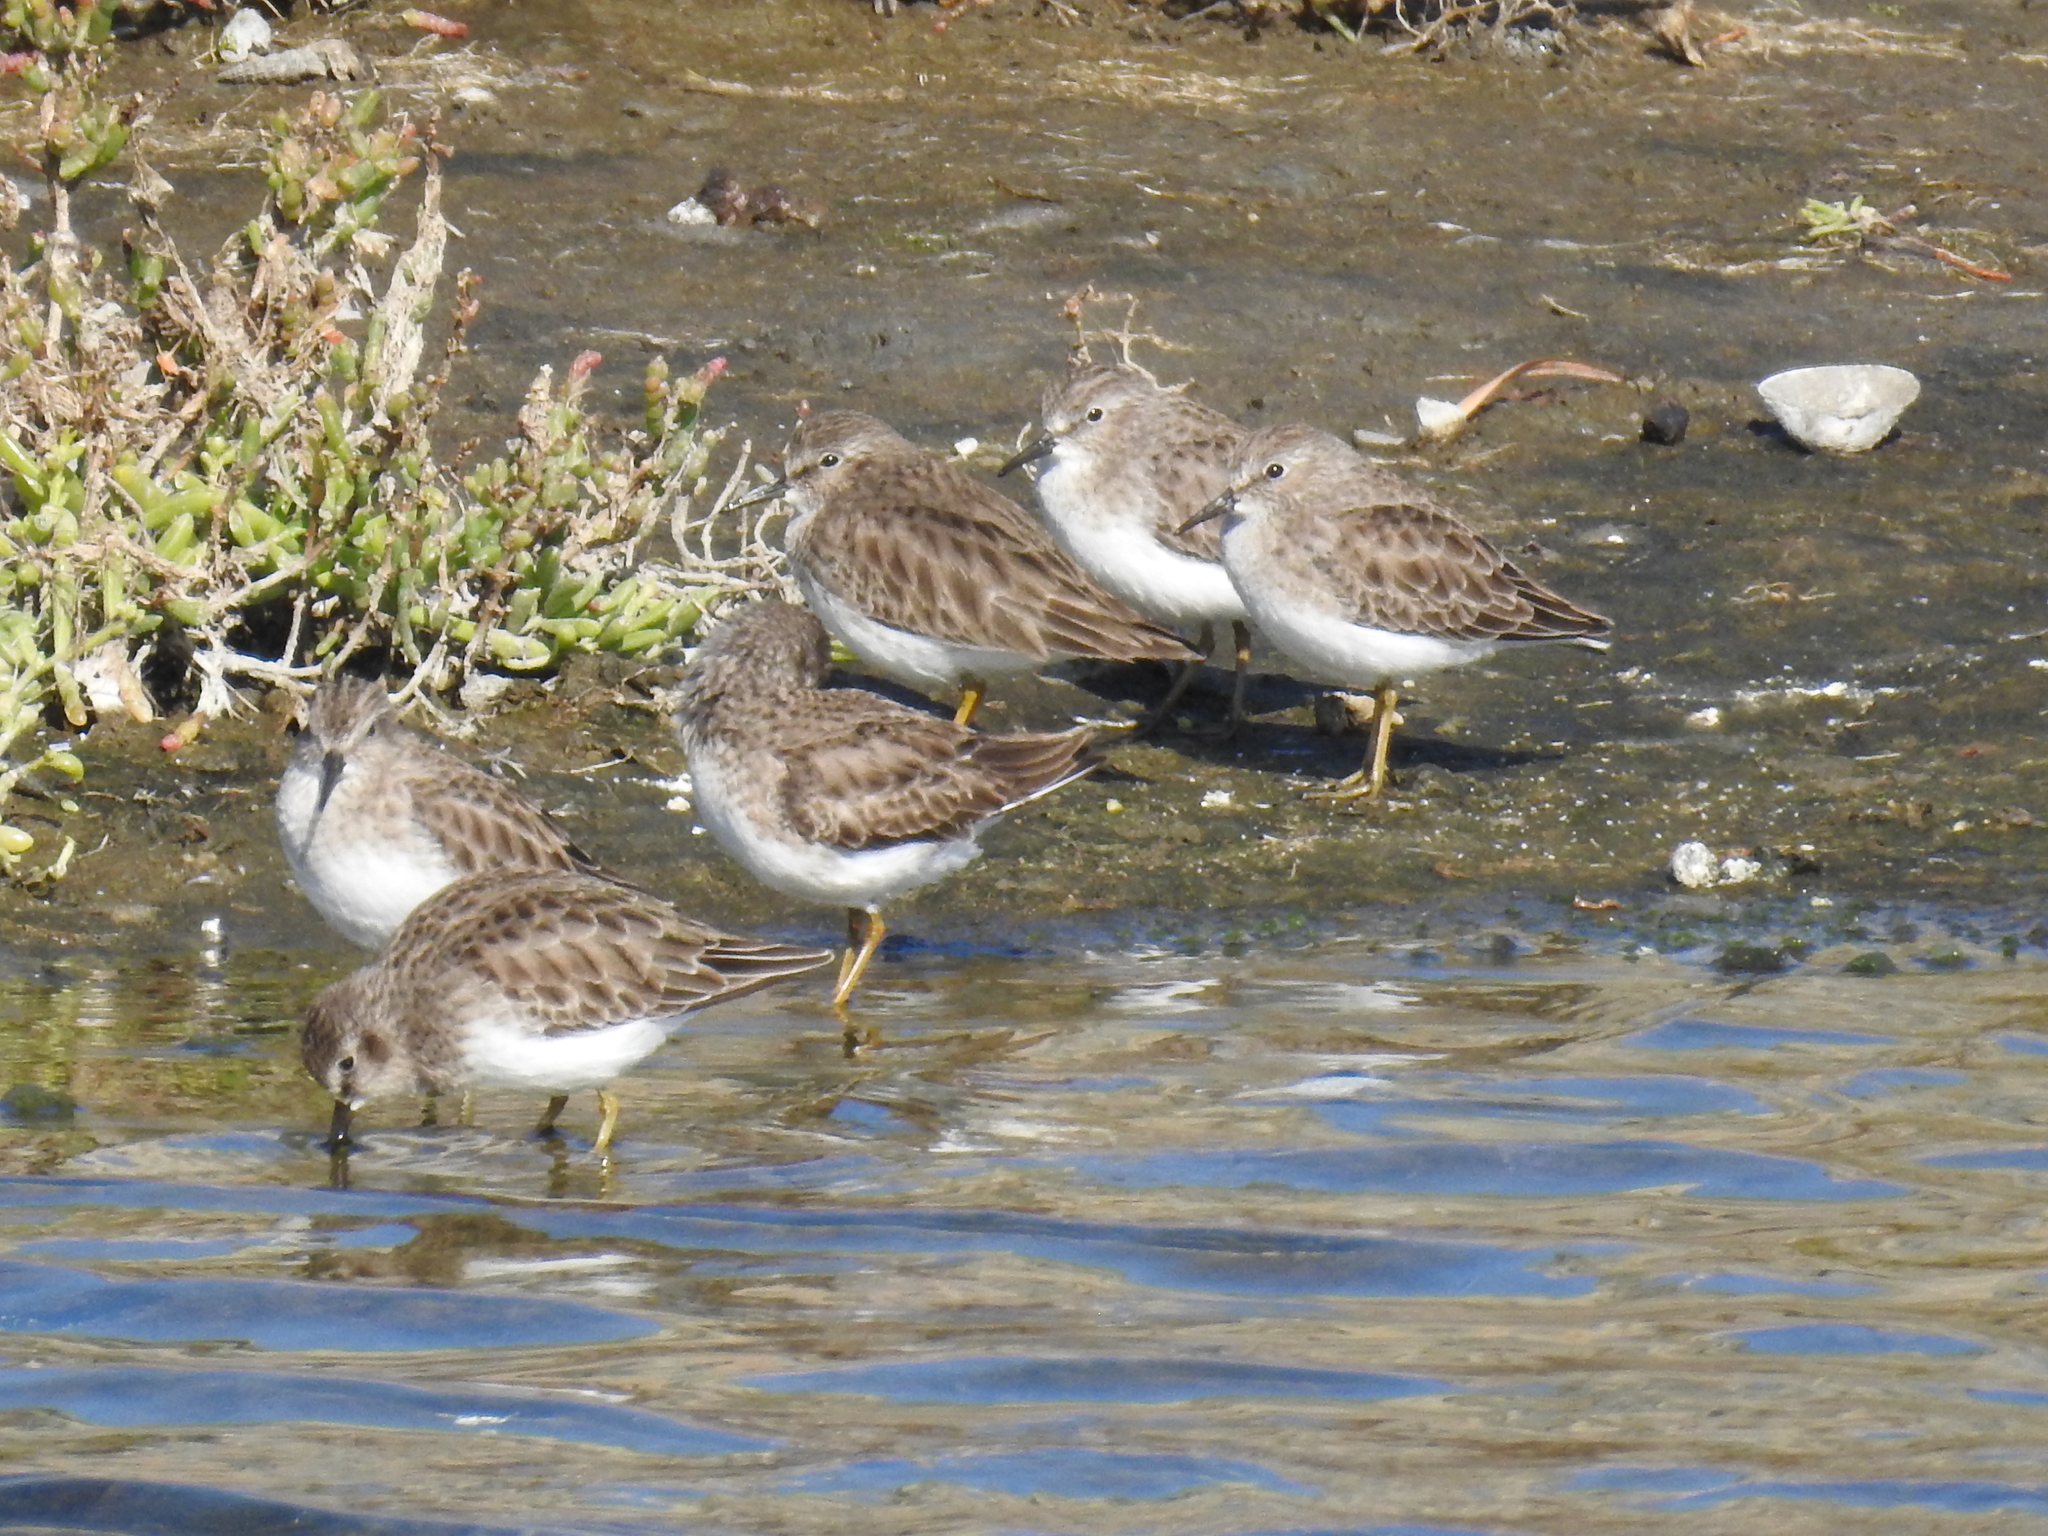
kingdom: Animalia
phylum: Chordata
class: Aves
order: Charadriiformes
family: Scolopacidae
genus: Calidris
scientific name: Calidris minutilla
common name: Least sandpiper
